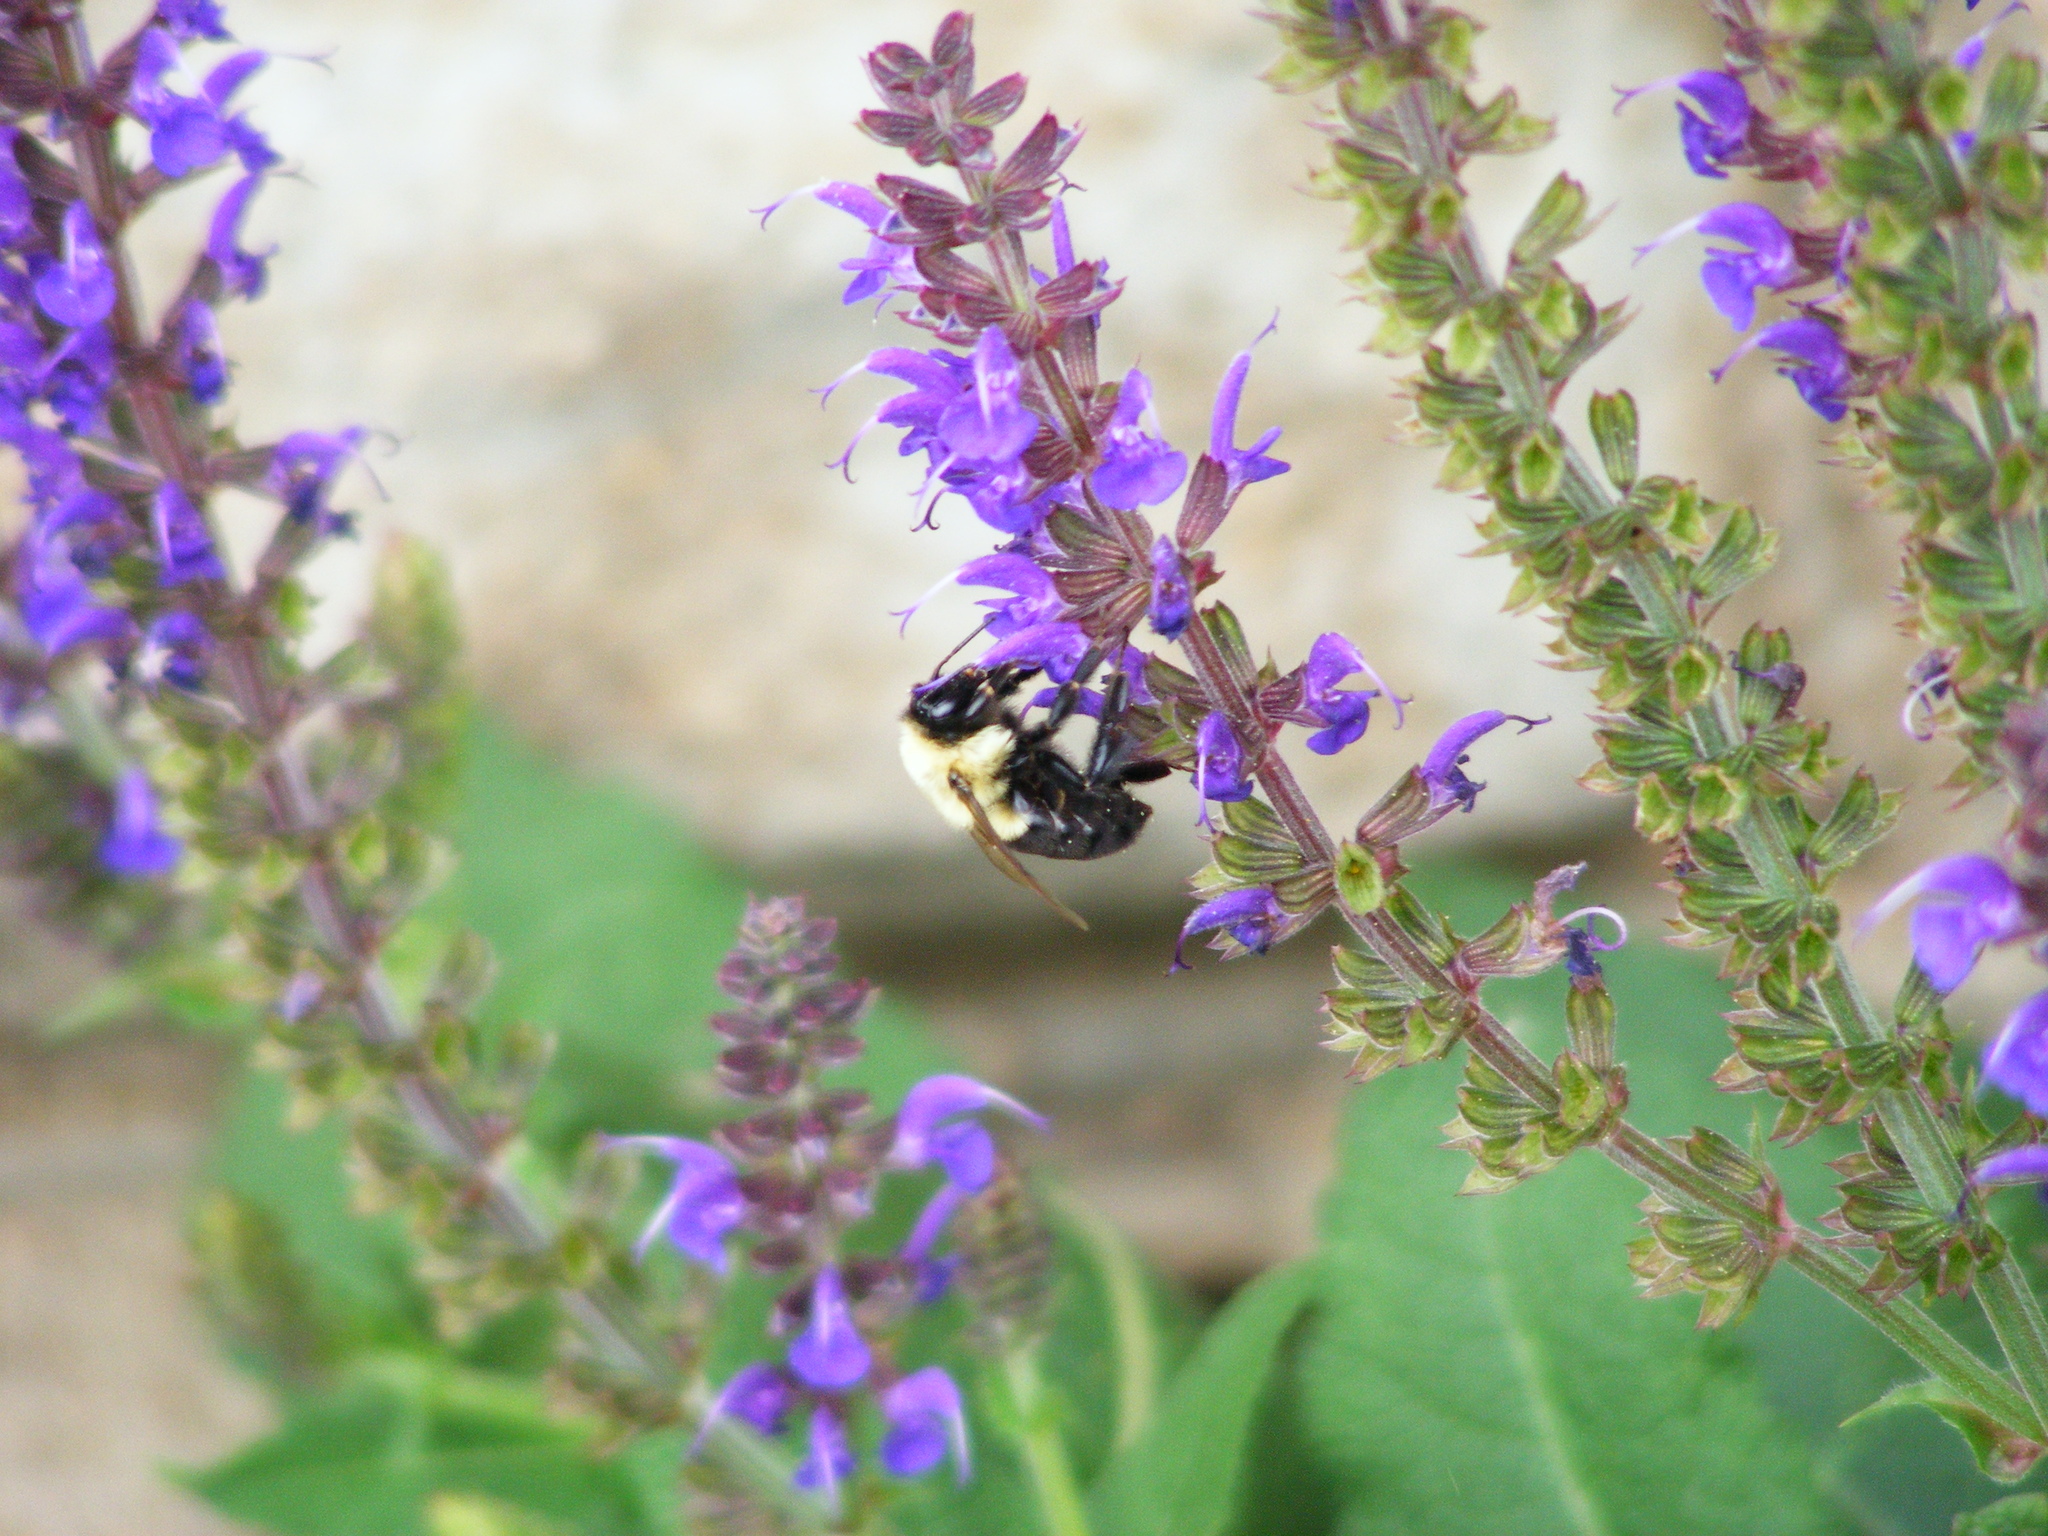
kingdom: Animalia
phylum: Arthropoda
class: Insecta
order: Hymenoptera
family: Apidae
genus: Bombus
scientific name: Bombus impatiens
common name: Common eastern bumble bee
